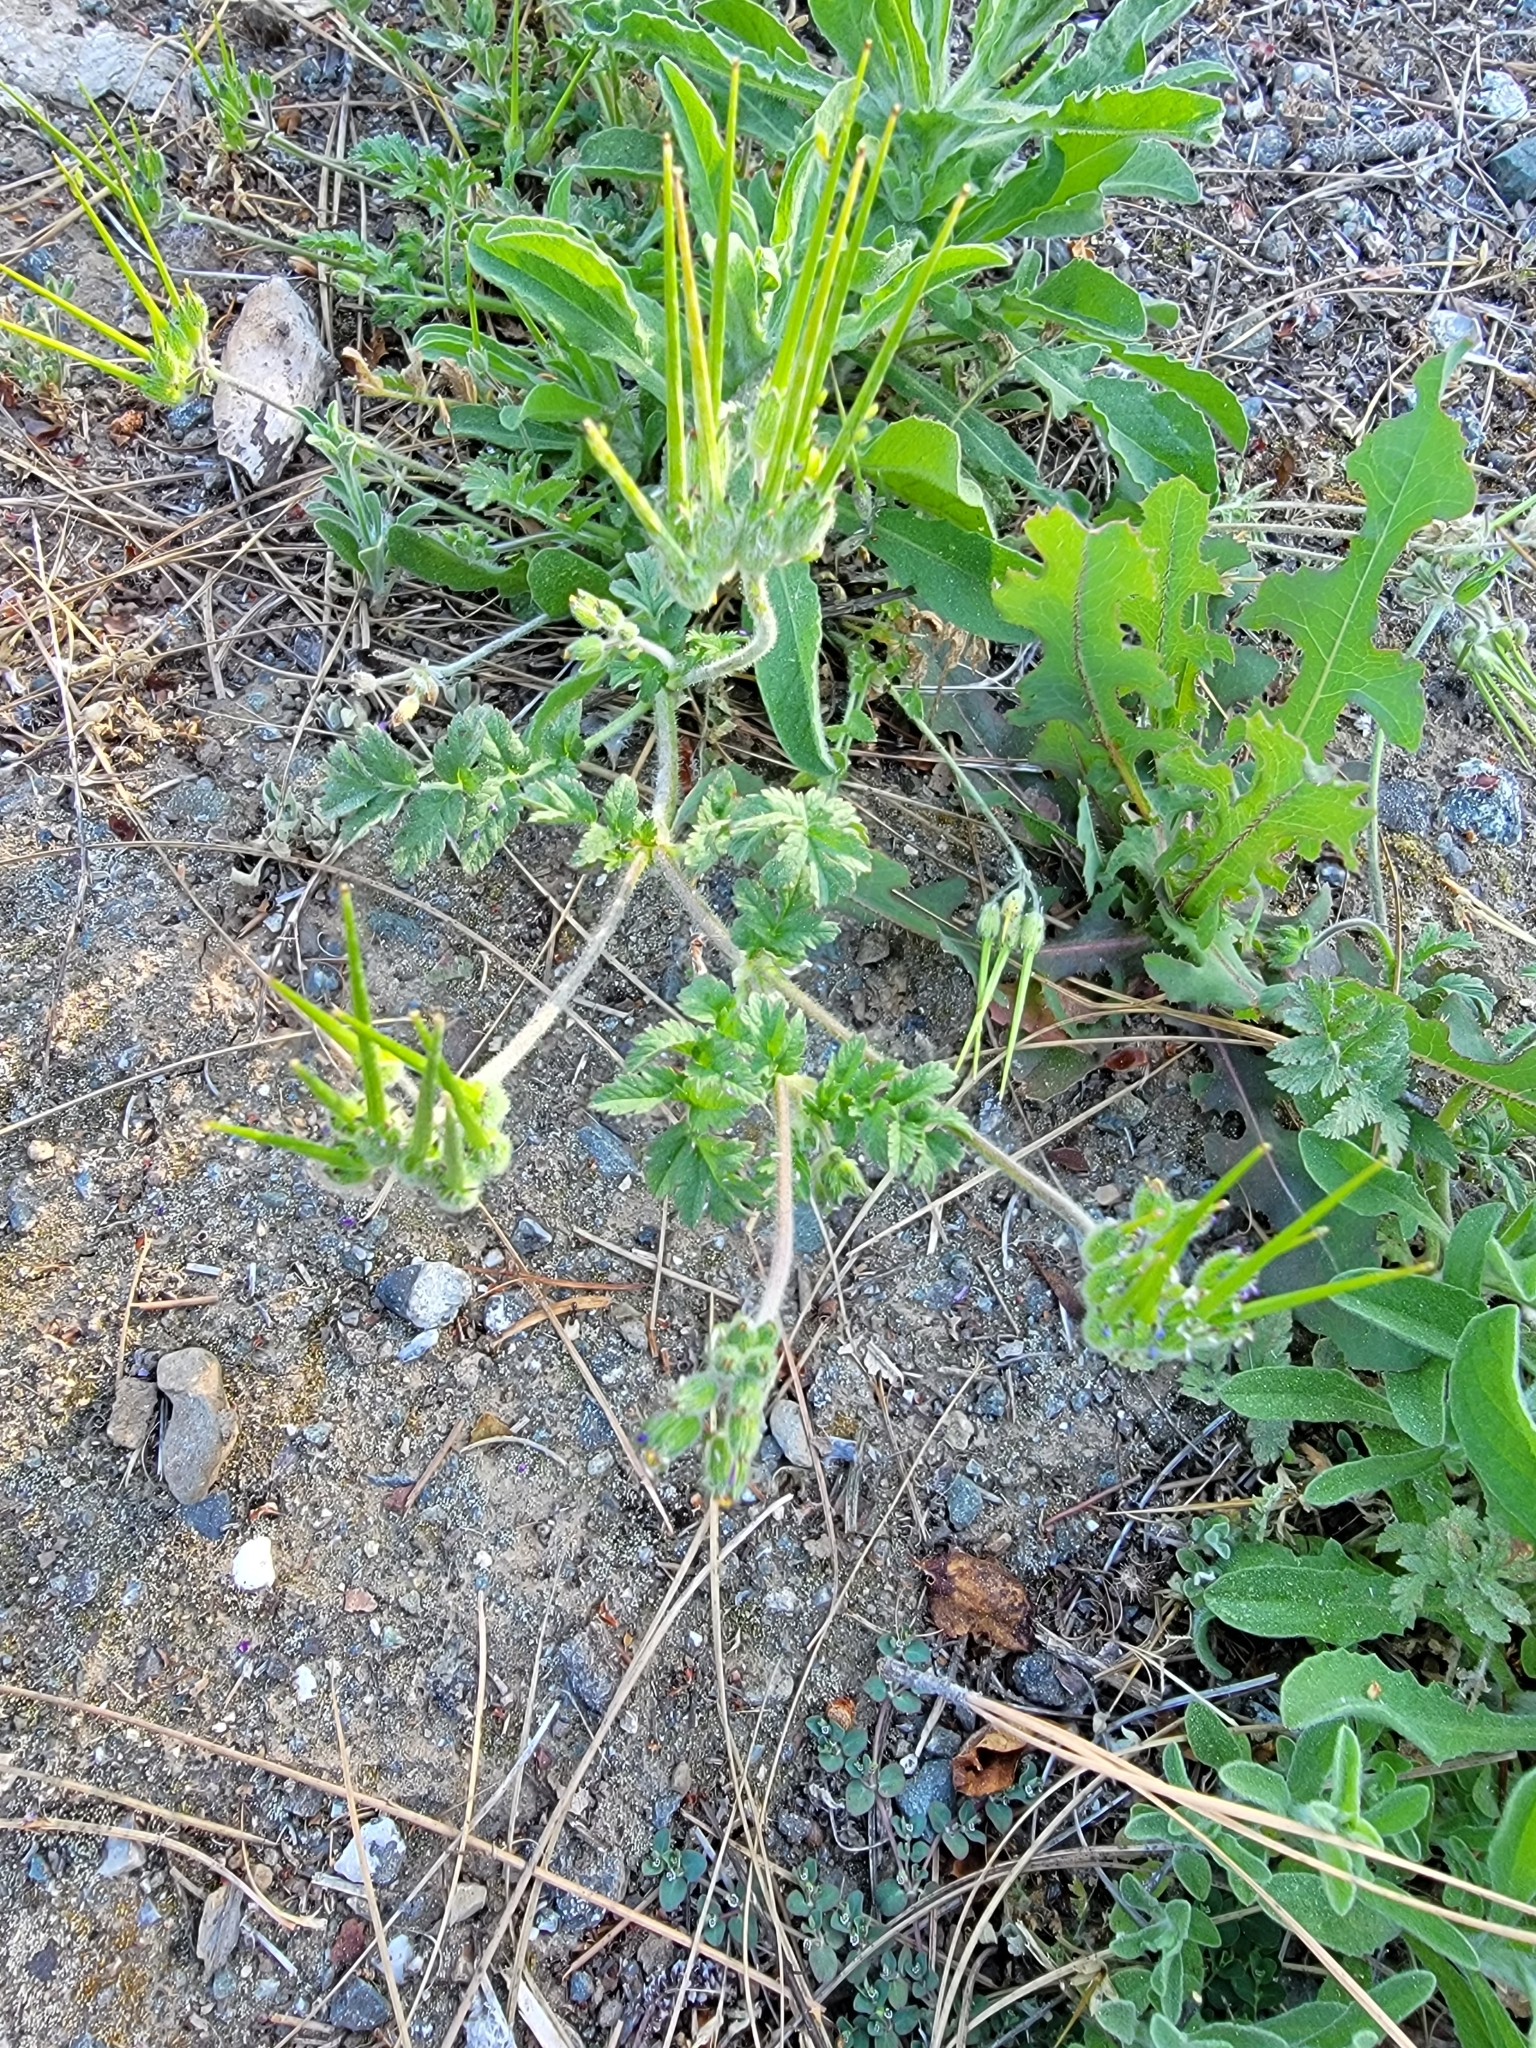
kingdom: Plantae
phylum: Tracheophyta
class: Magnoliopsida
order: Geraniales
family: Geraniaceae
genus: Erodium
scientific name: Erodium moschatum
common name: Musk stork's-bill
